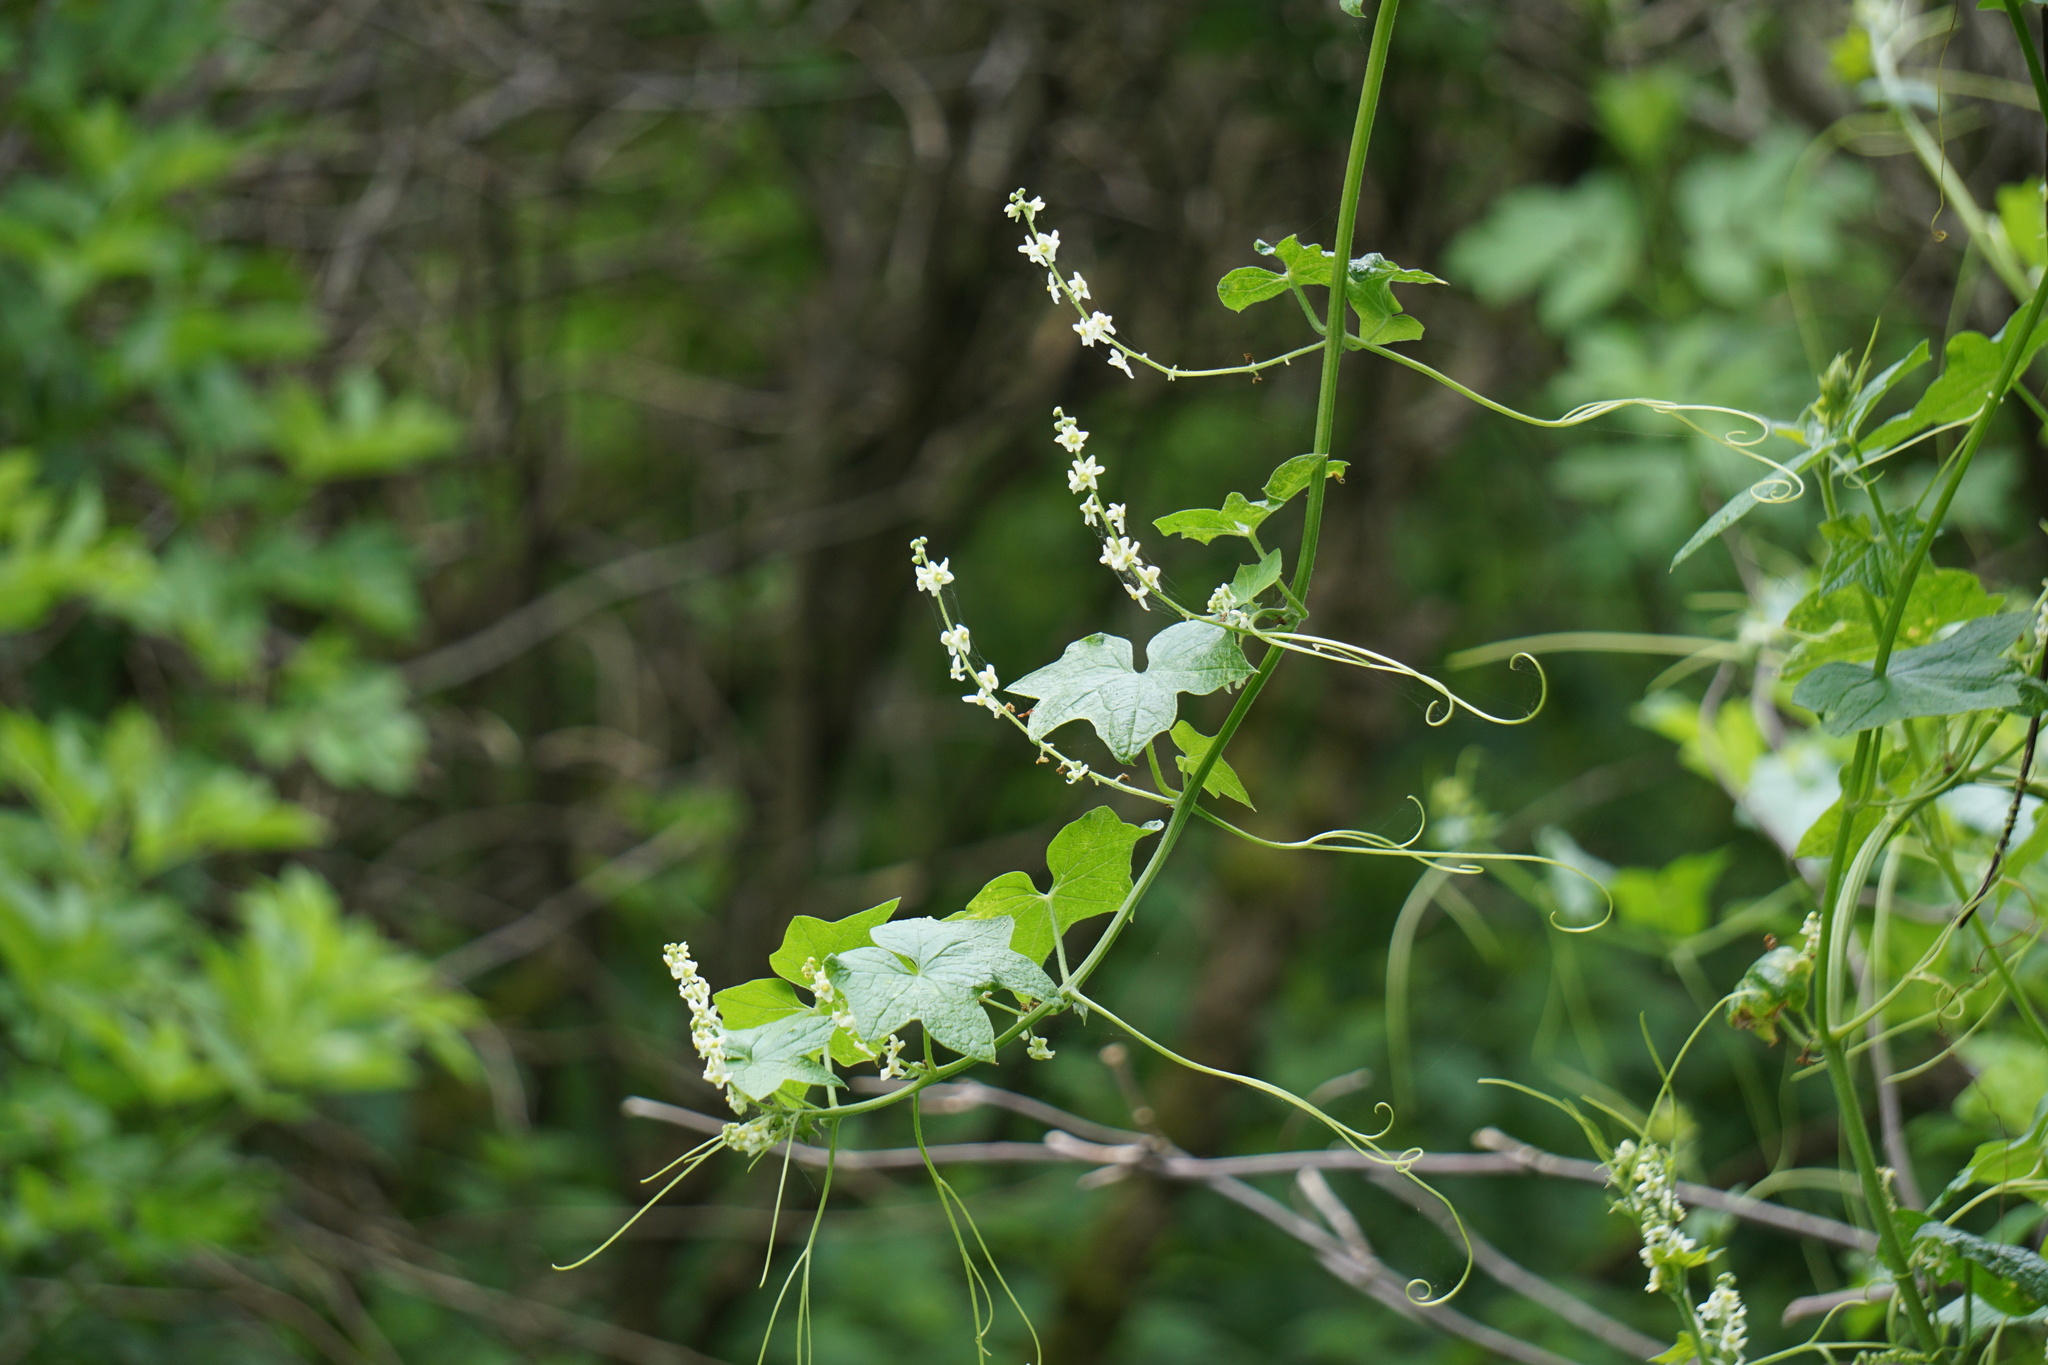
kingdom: Plantae
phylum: Tracheophyta
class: Magnoliopsida
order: Cucurbitales
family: Cucurbitaceae
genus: Marah
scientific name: Marah fabacea
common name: California manroot
